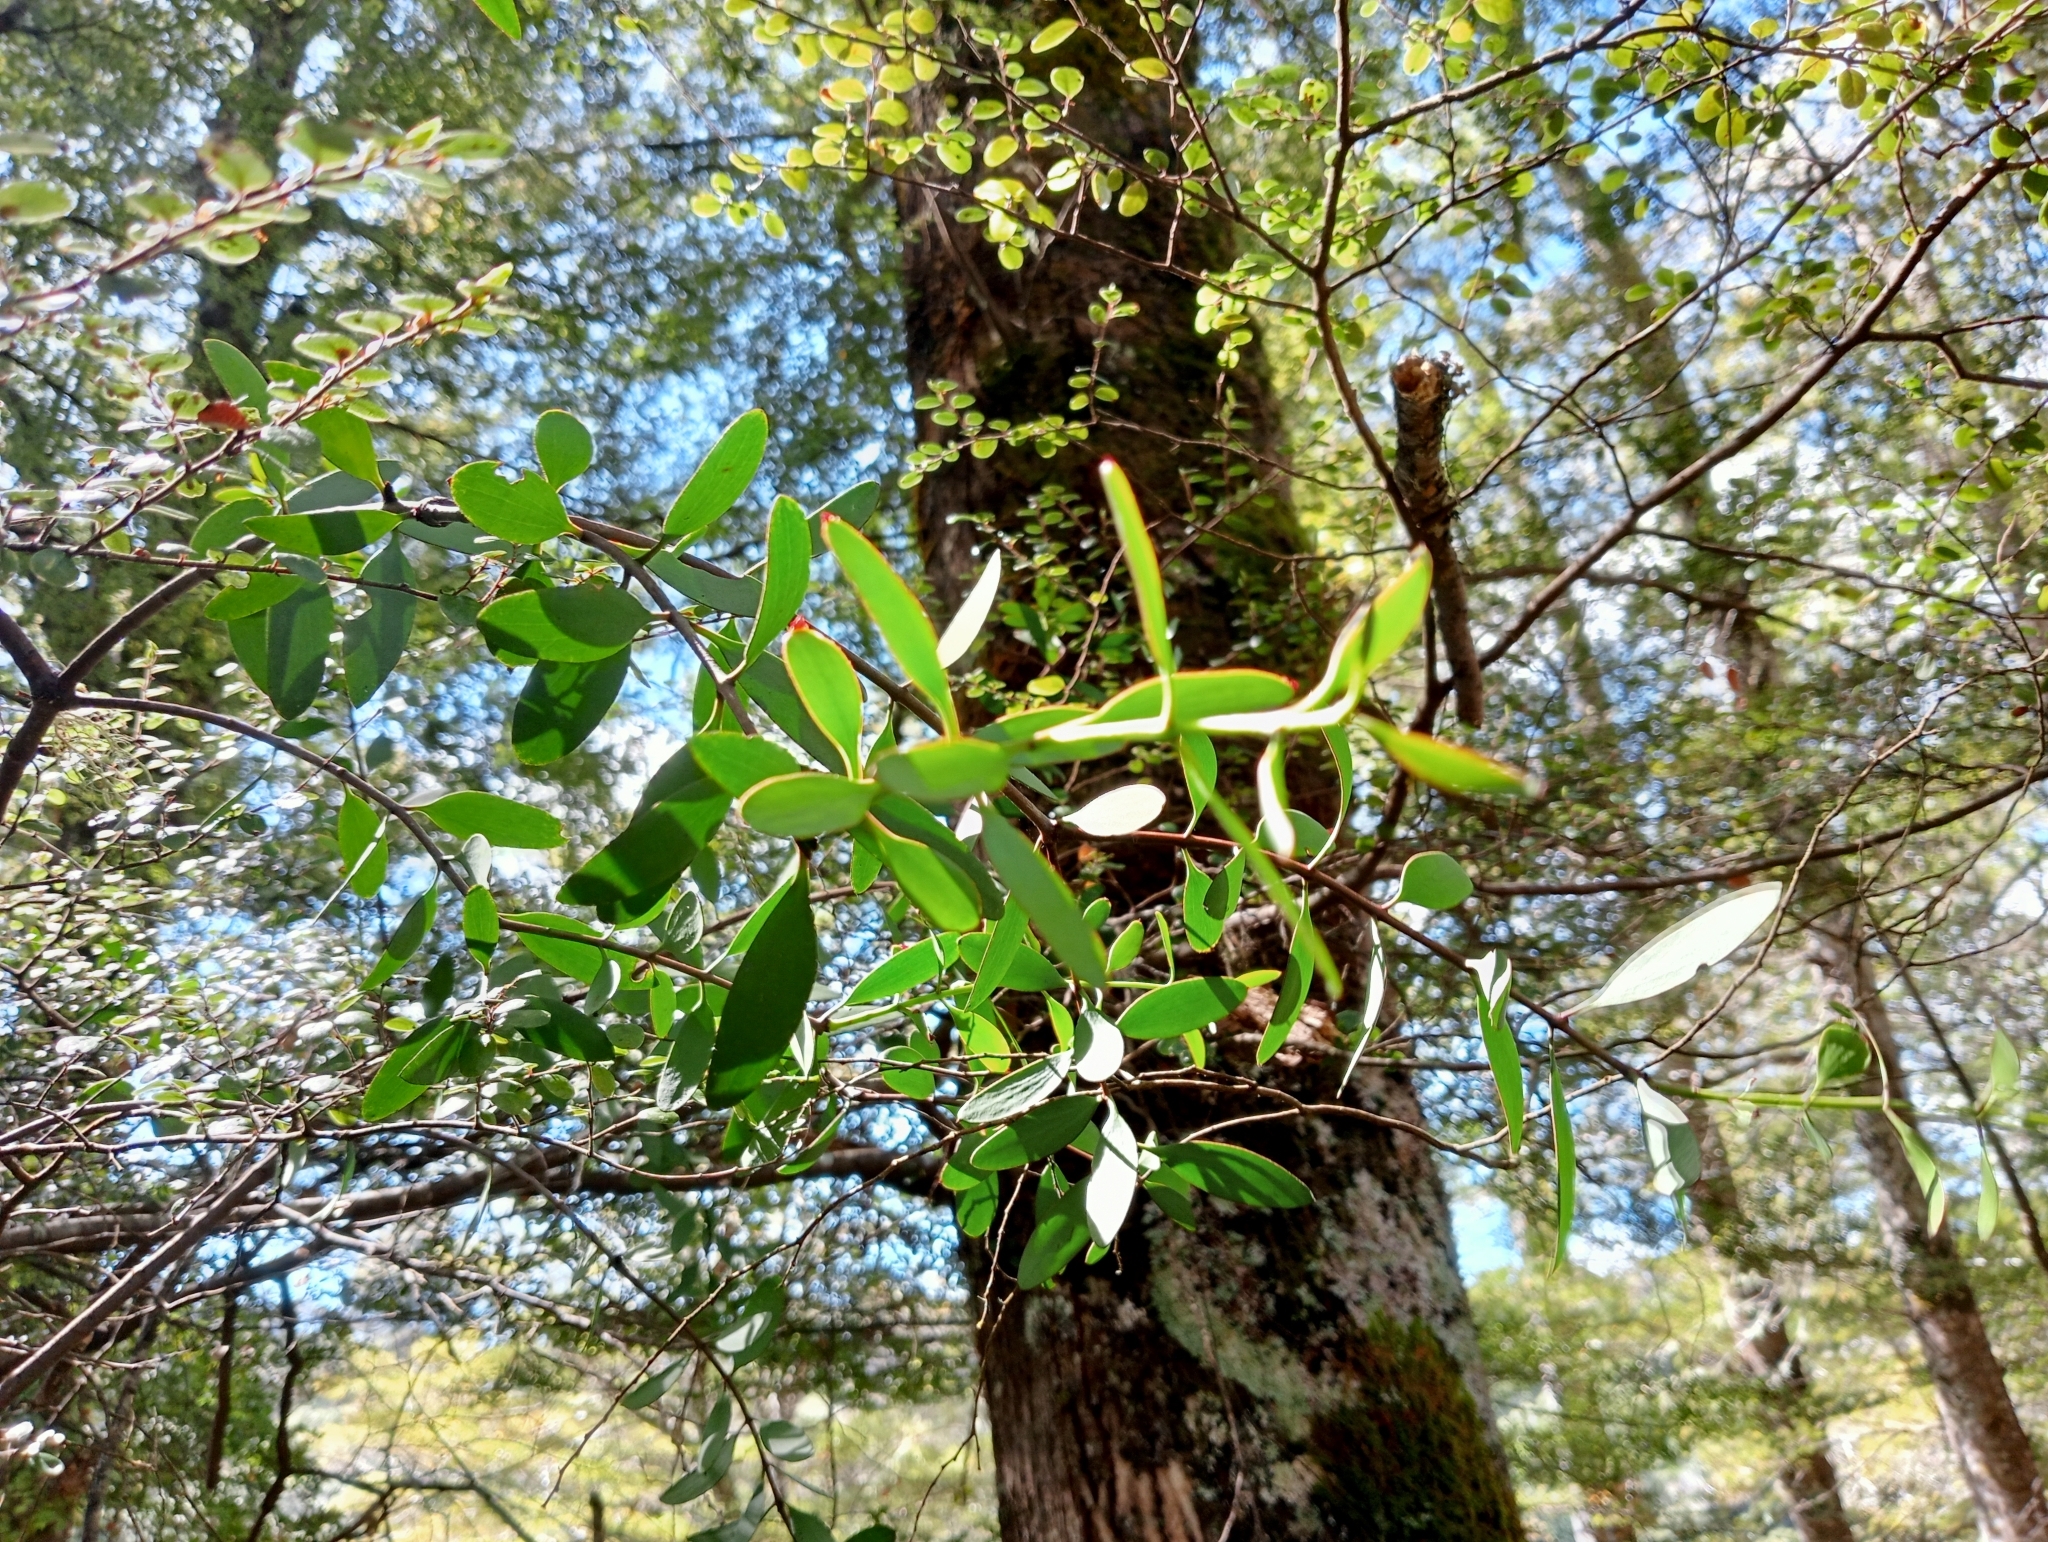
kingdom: Plantae
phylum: Tracheophyta
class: Magnoliopsida
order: Santalales
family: Loranthaceae
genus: Alepis
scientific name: Alepis flavida
